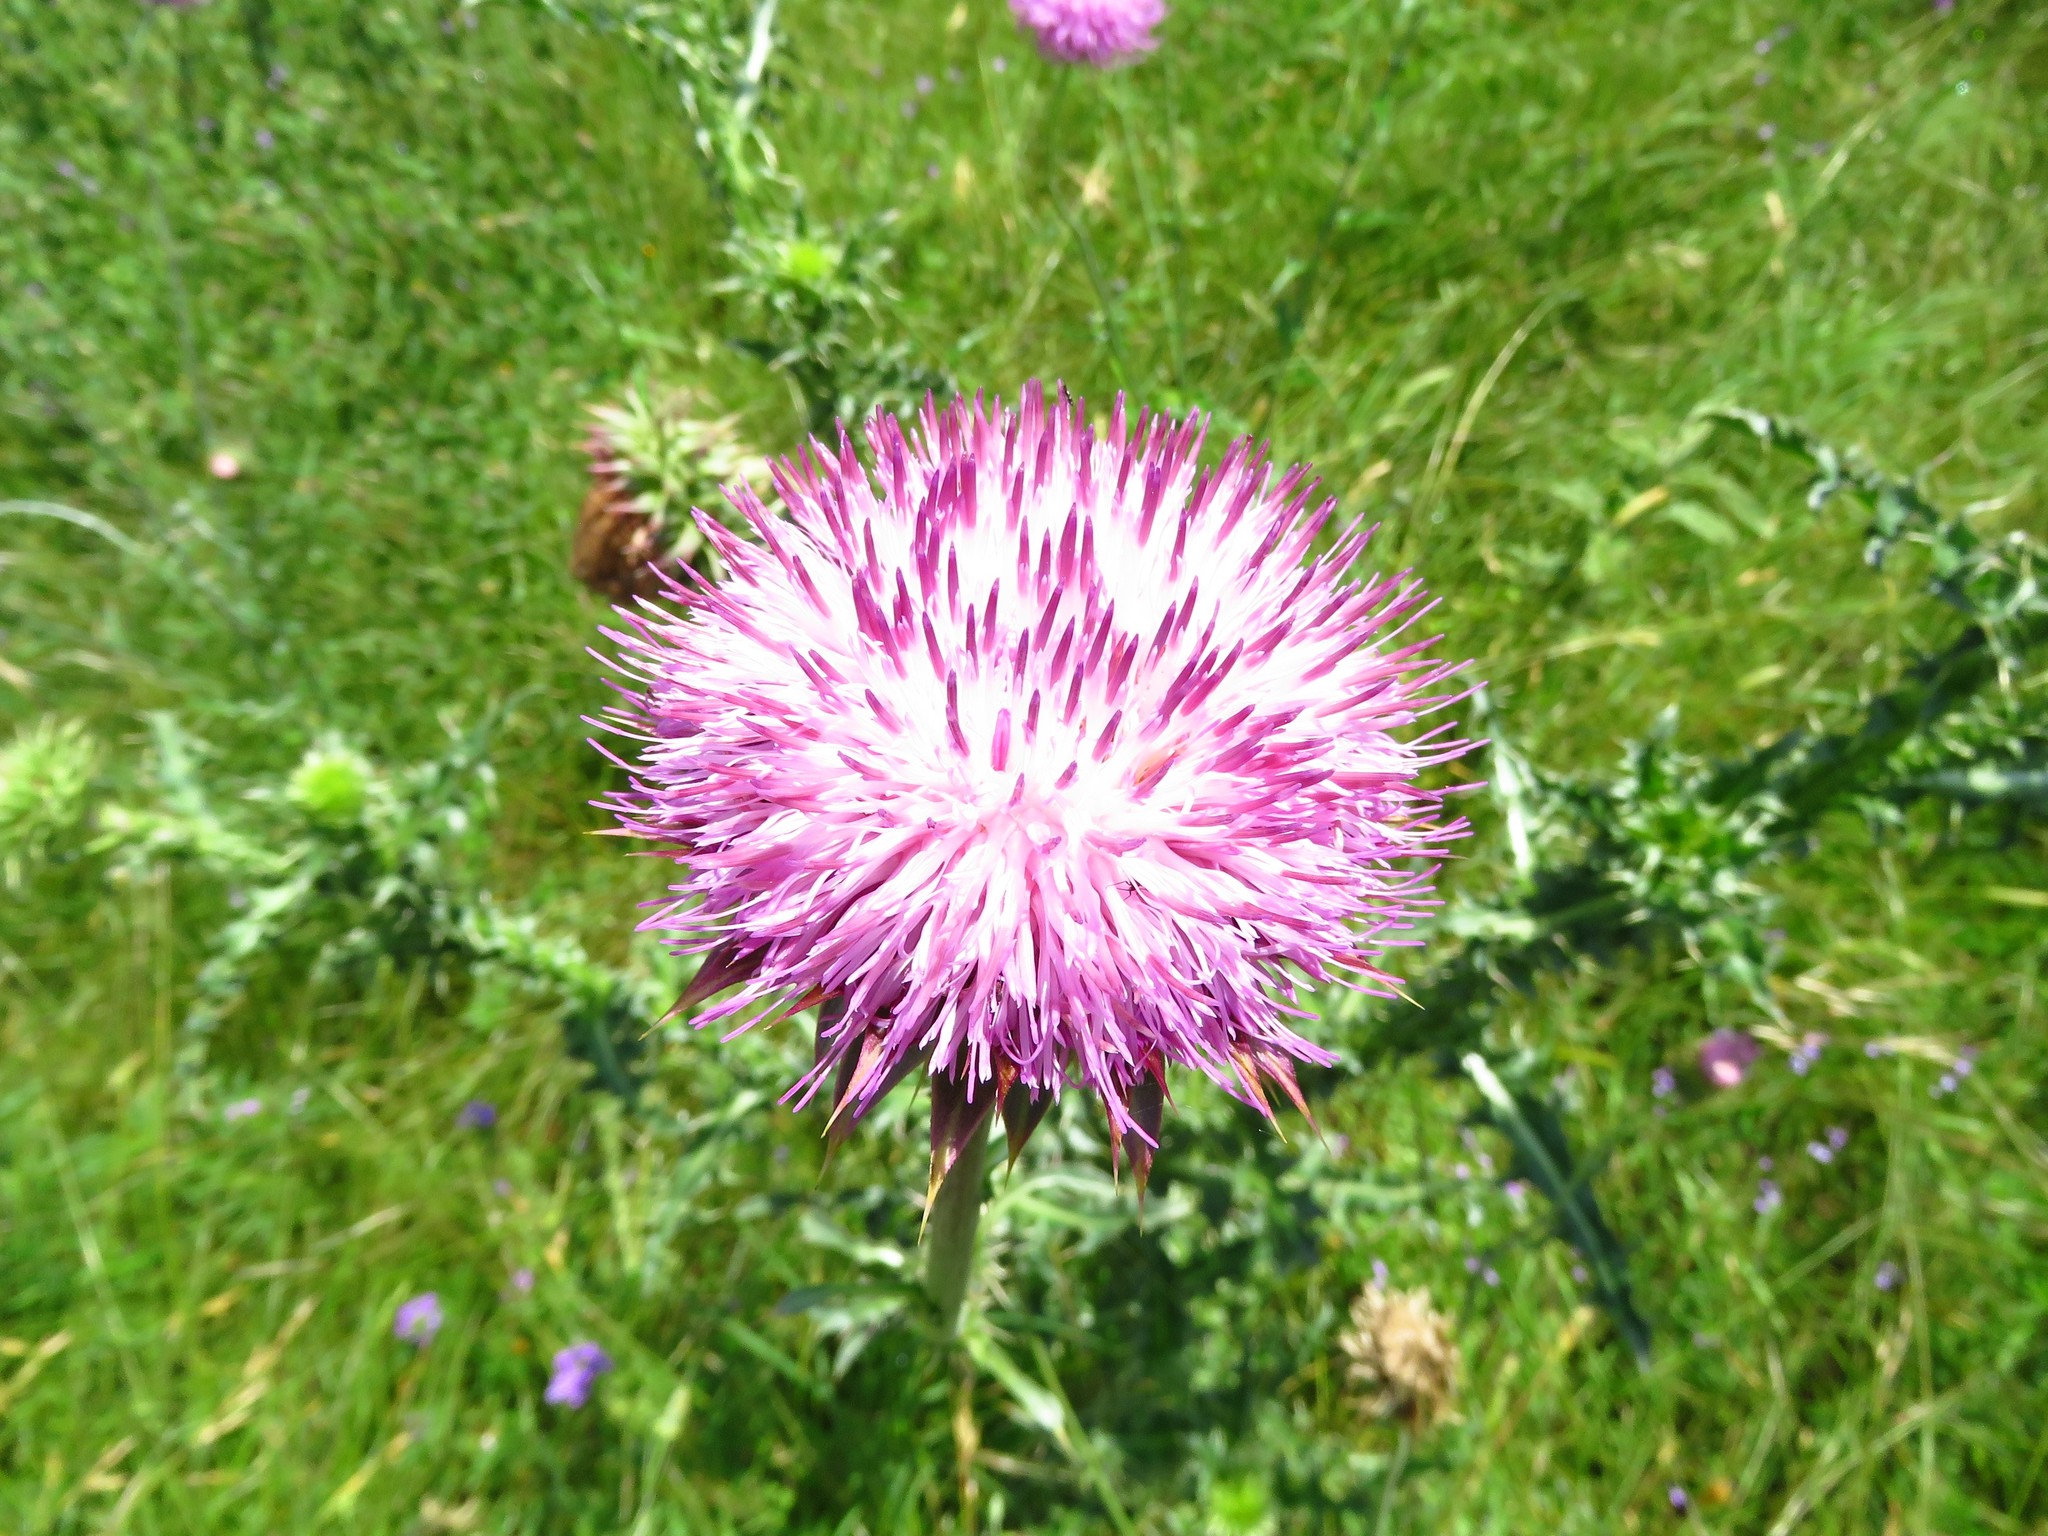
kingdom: Plantae
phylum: Tracheophyta
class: Magnoliopsida
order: Asterales
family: Asteraceae
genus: Carduus
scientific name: Carduus nutans
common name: Musk thistle
